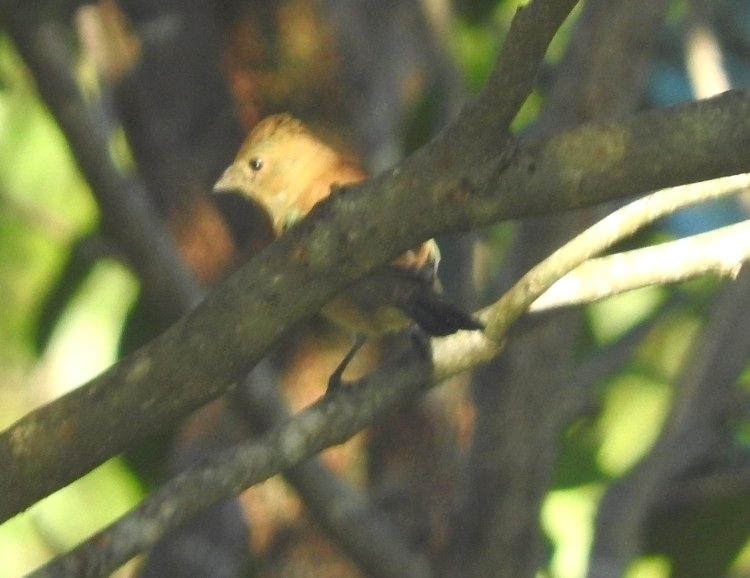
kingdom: Animalia
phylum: Chordata
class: Aves
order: Passeriformes
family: Cardinalidae
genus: Passerina
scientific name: Passerina cyanea
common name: Indigo bunting
